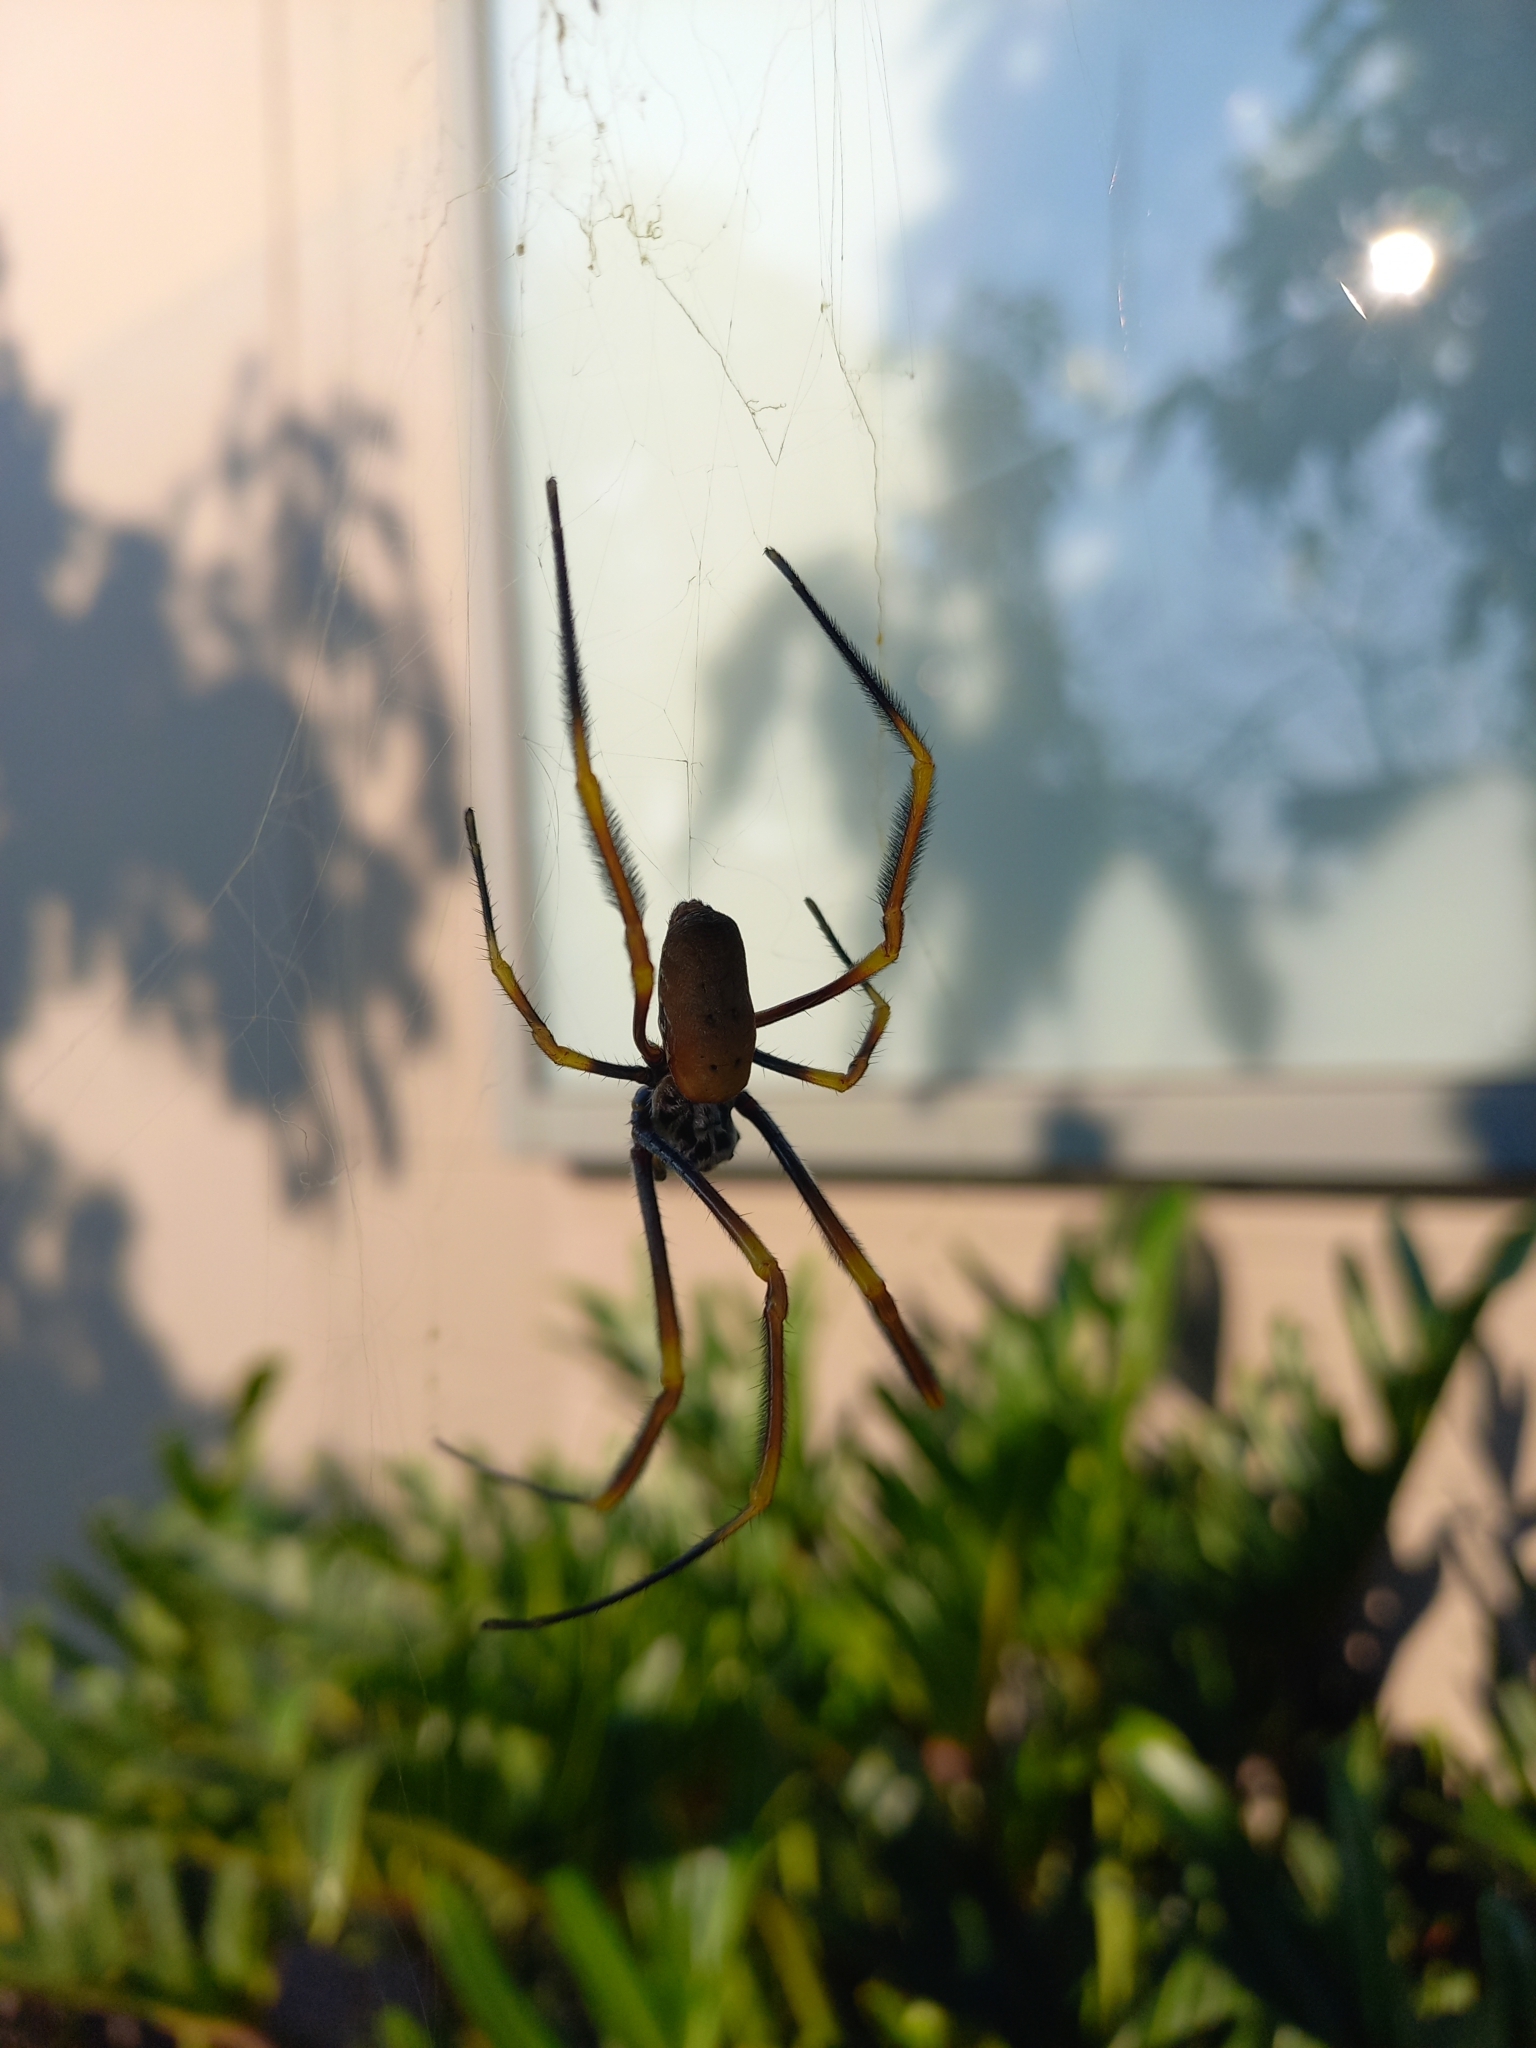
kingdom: Animalia
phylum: Arthropoda
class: Arachnida
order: Araneae
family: Araneidae
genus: Trichonephila
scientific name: Trichonephila plumipes
